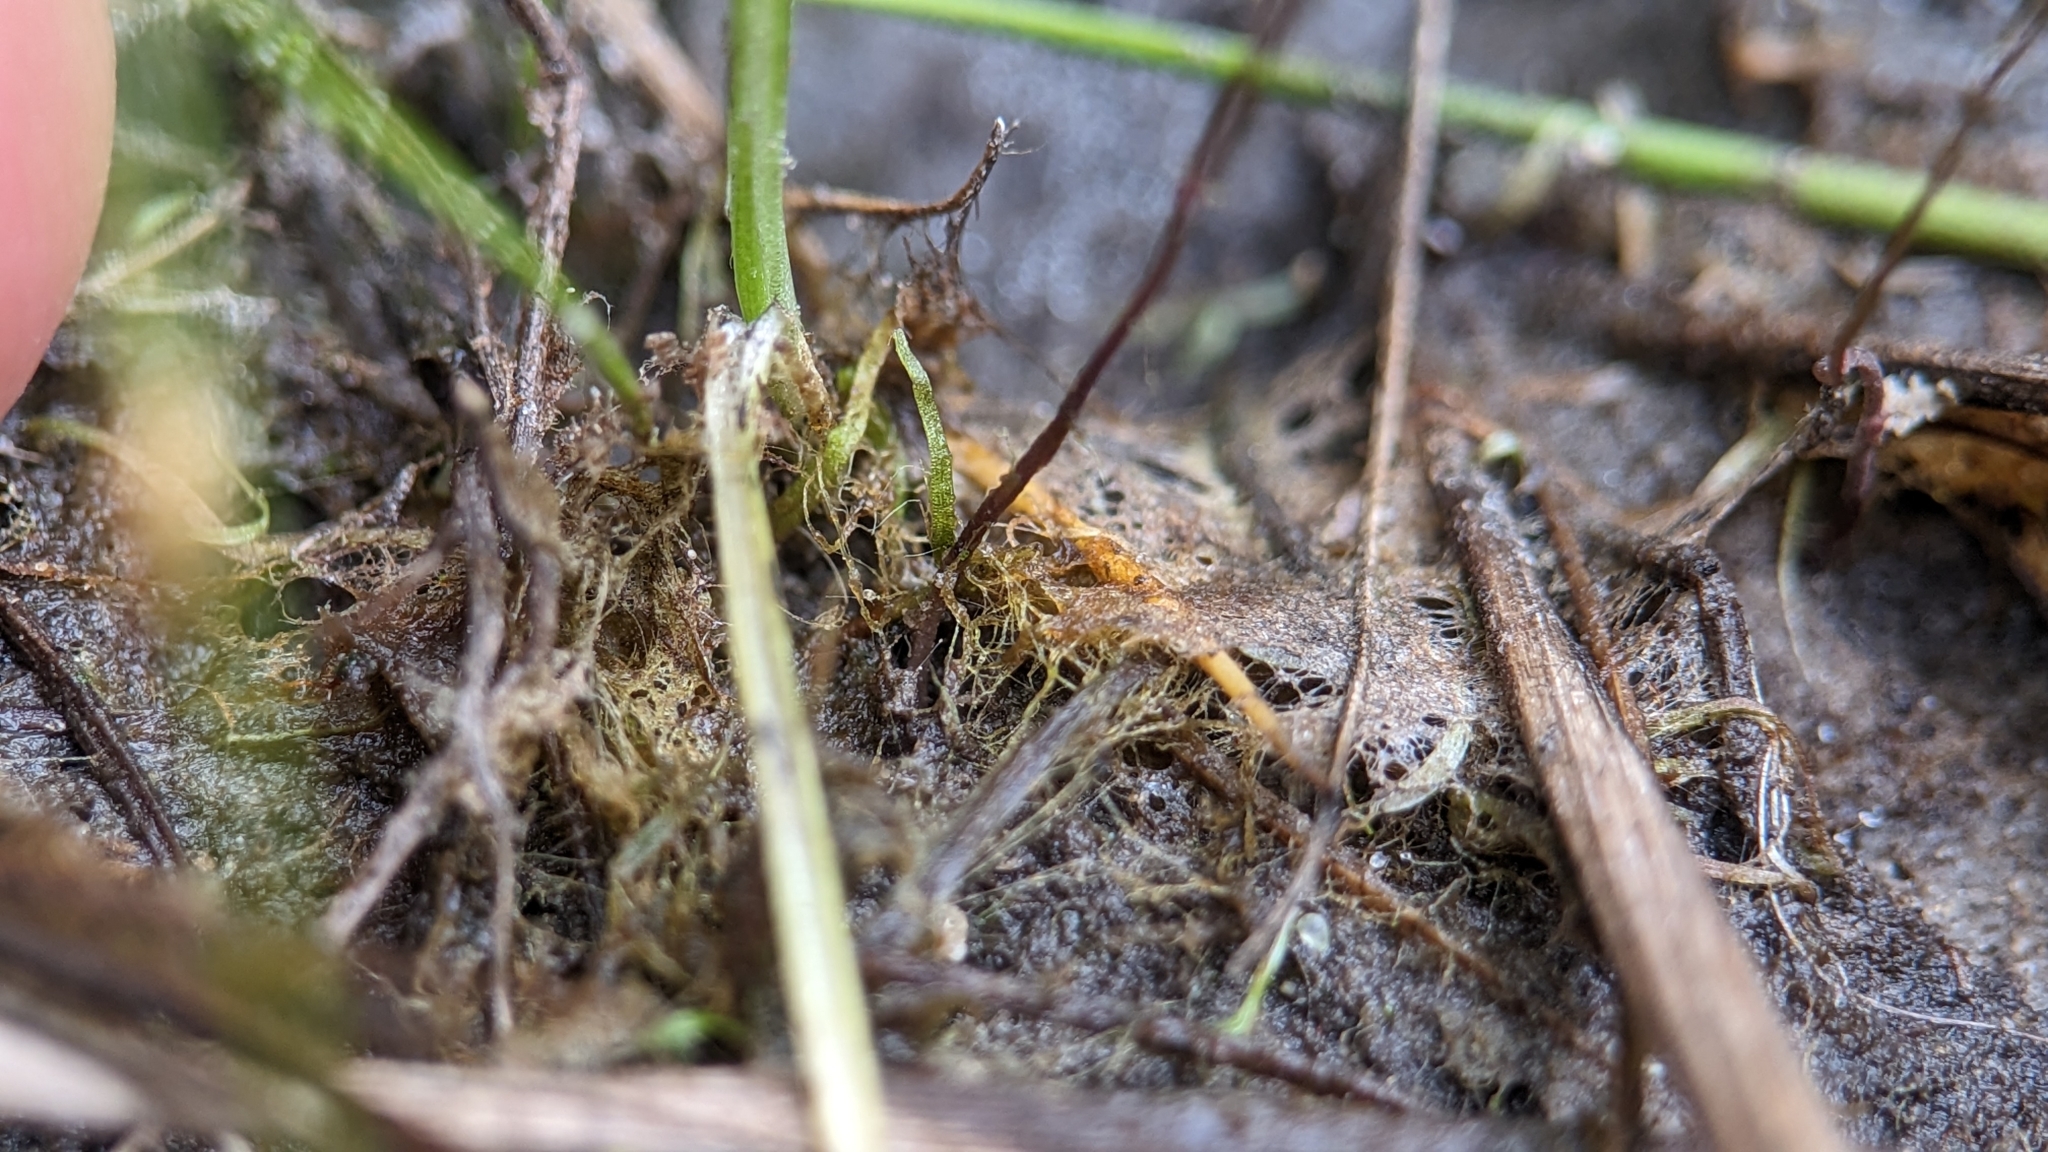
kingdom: Plantae
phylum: Tracheophyta
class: Magnoliopsida
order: Lamiales
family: Lentibulariaceae
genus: Utricularia
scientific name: Utricularia subulata
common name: Tiny bladderwort
